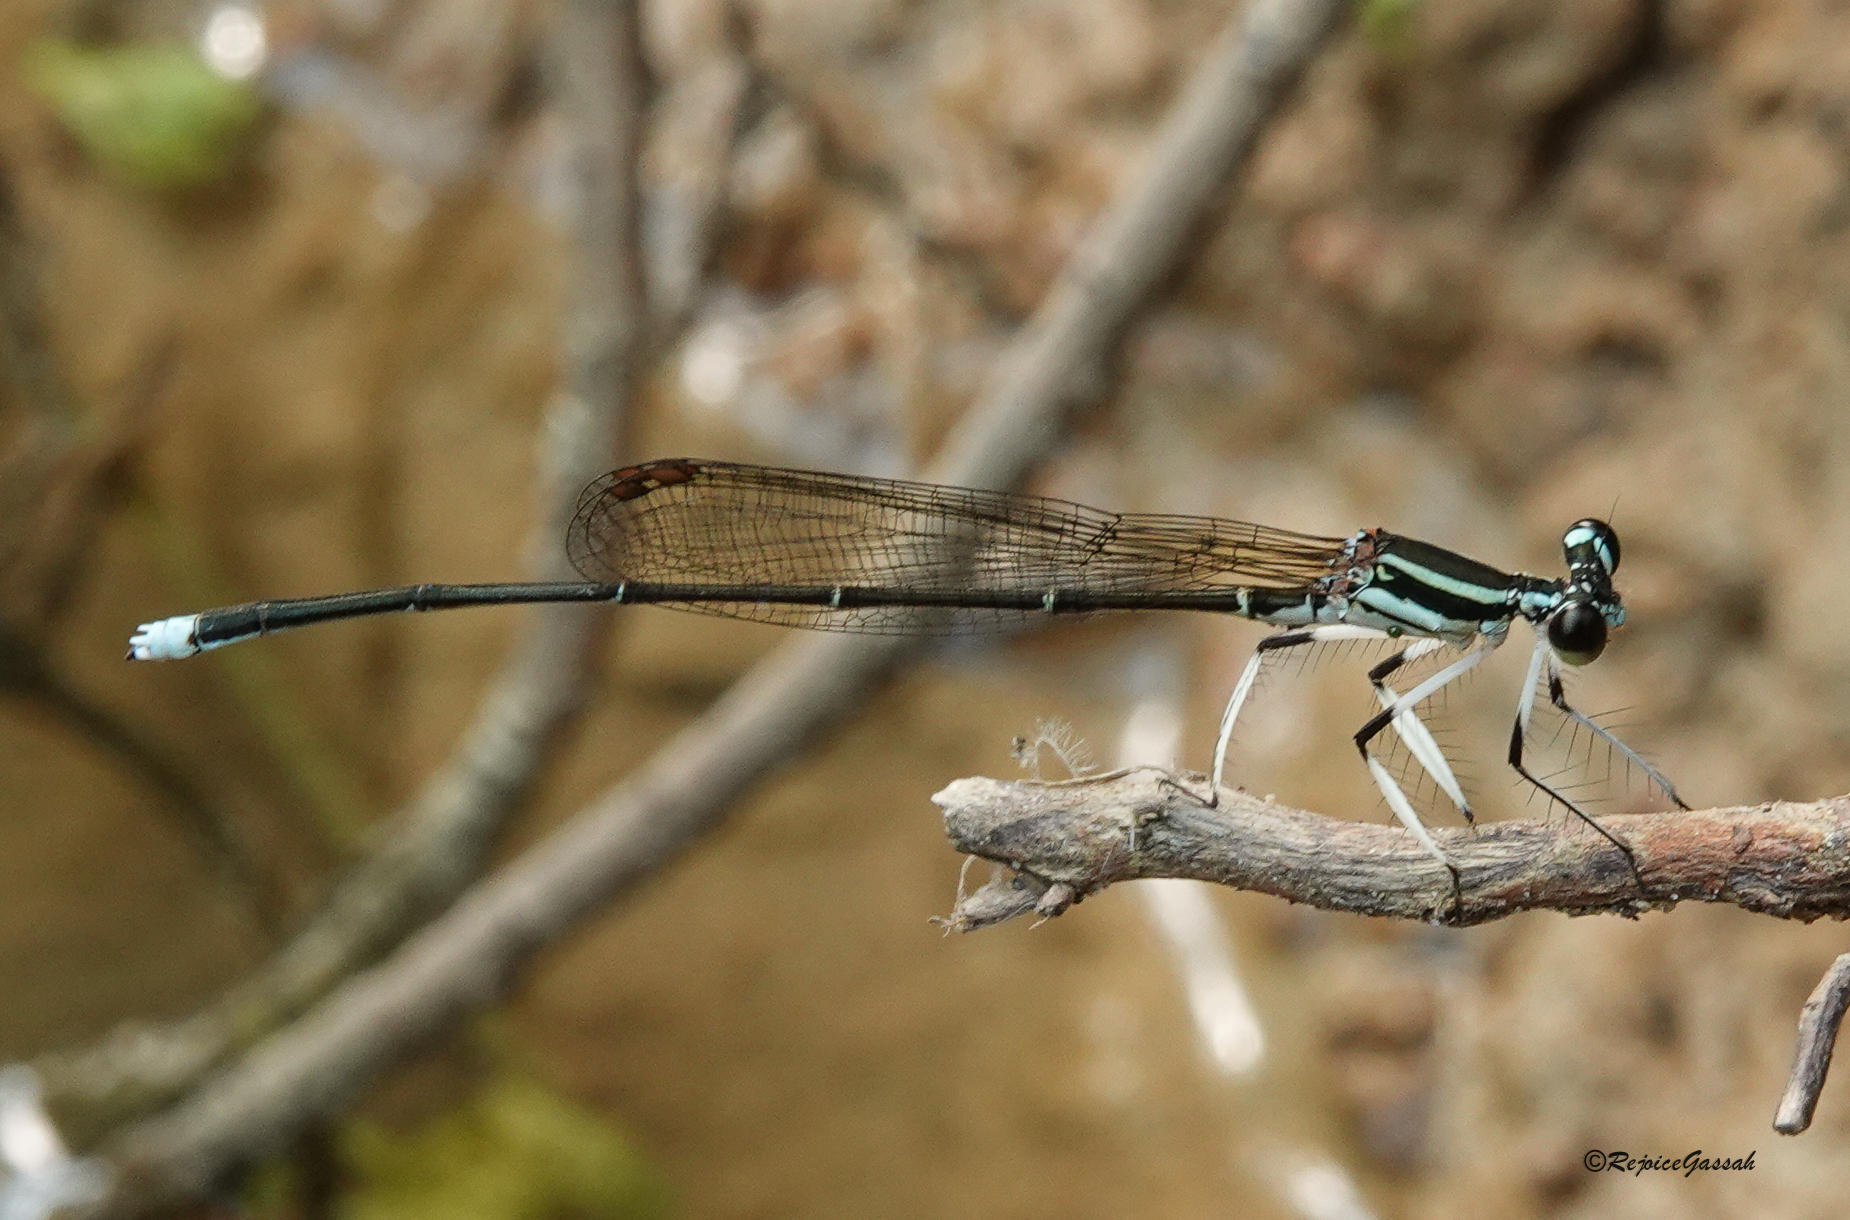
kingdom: Animalia
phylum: Arthropoda
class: Insecta
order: Odonata
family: Platycnemididae
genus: Pseudocopera
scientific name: Pseudocopera ciliata
